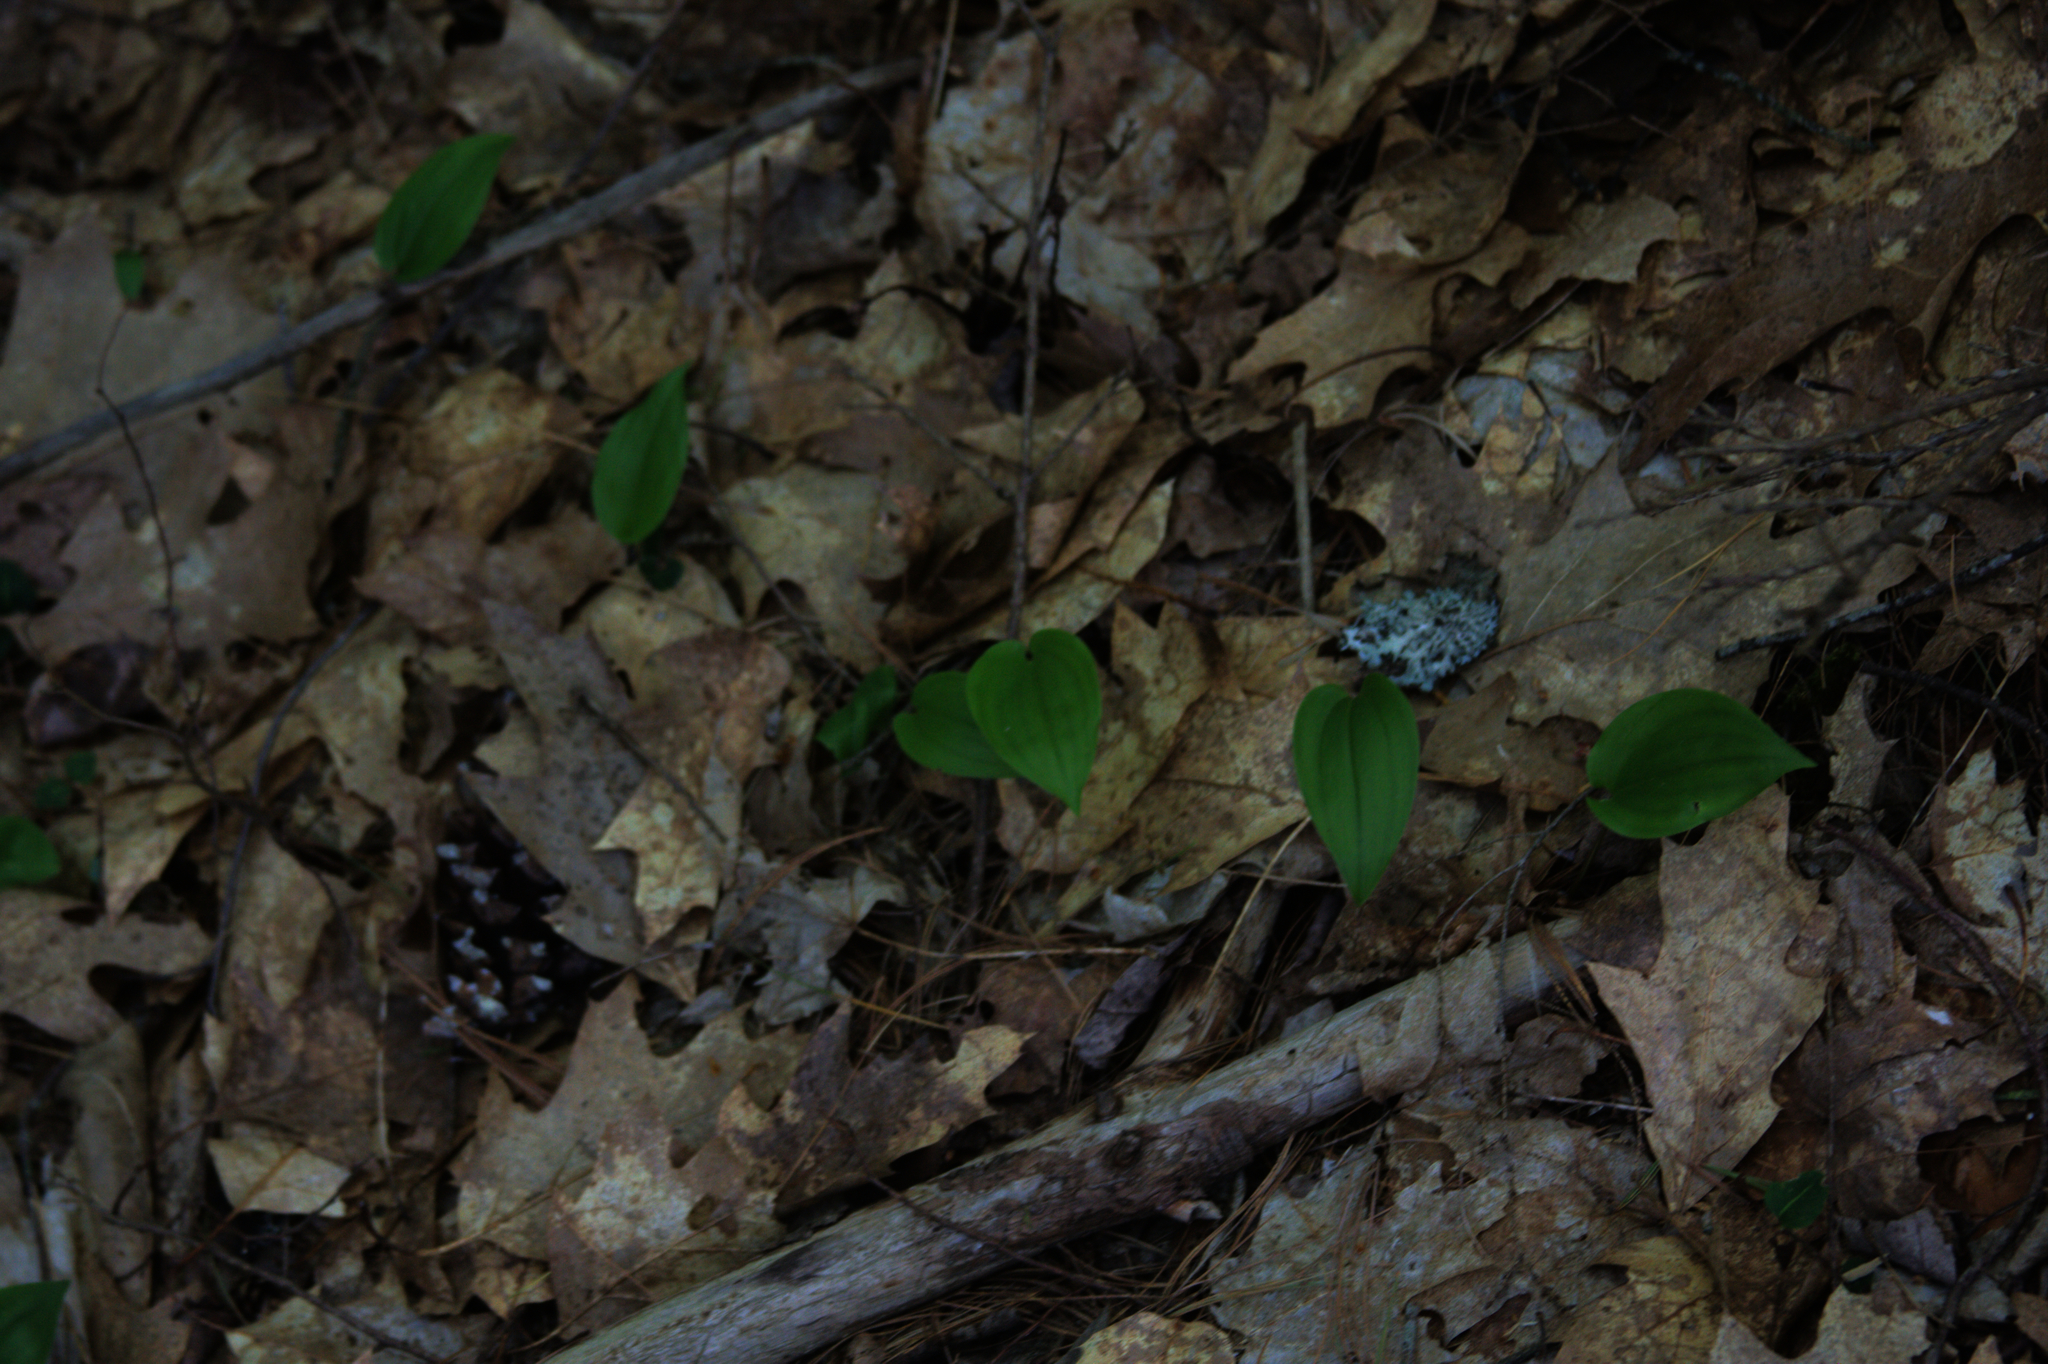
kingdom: Plantae
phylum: Tracheophyta
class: Liliopsida
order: Asparagales
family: Asparagaceae
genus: Maianthemum
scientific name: Maianthemum canadense
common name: False lily-of-the-valley
